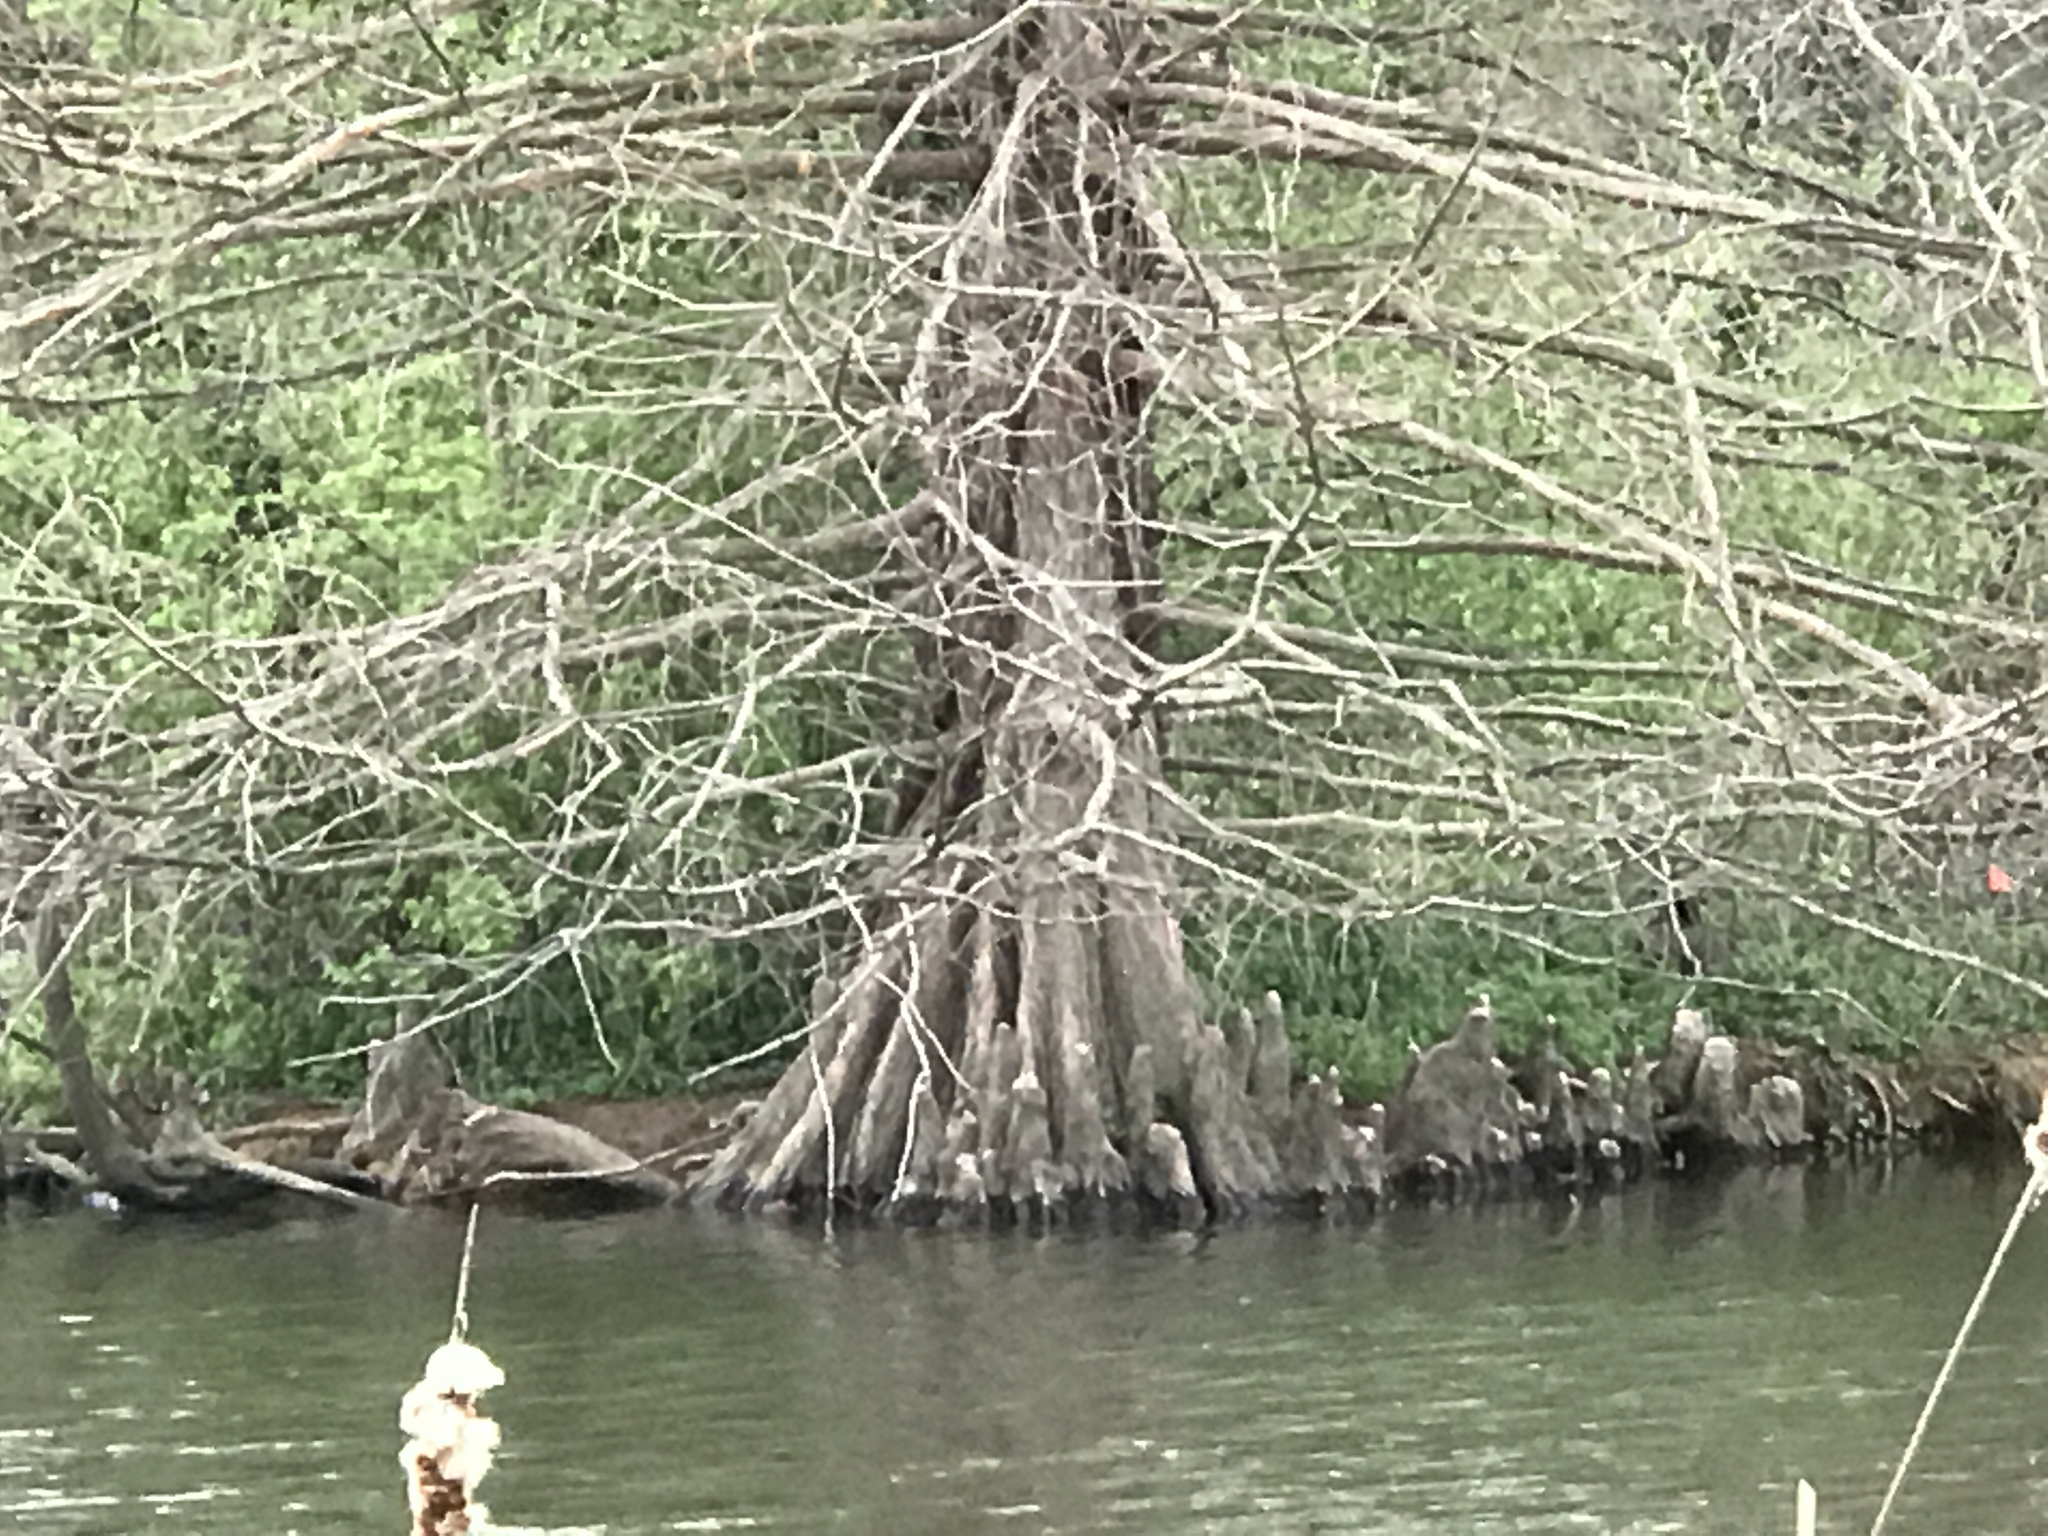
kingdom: Plantae
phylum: Tracheophyta
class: Pinopsida
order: Pinales
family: Cupressaceae
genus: Taxodium
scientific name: Taxodium distichum
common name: Bald cypress
